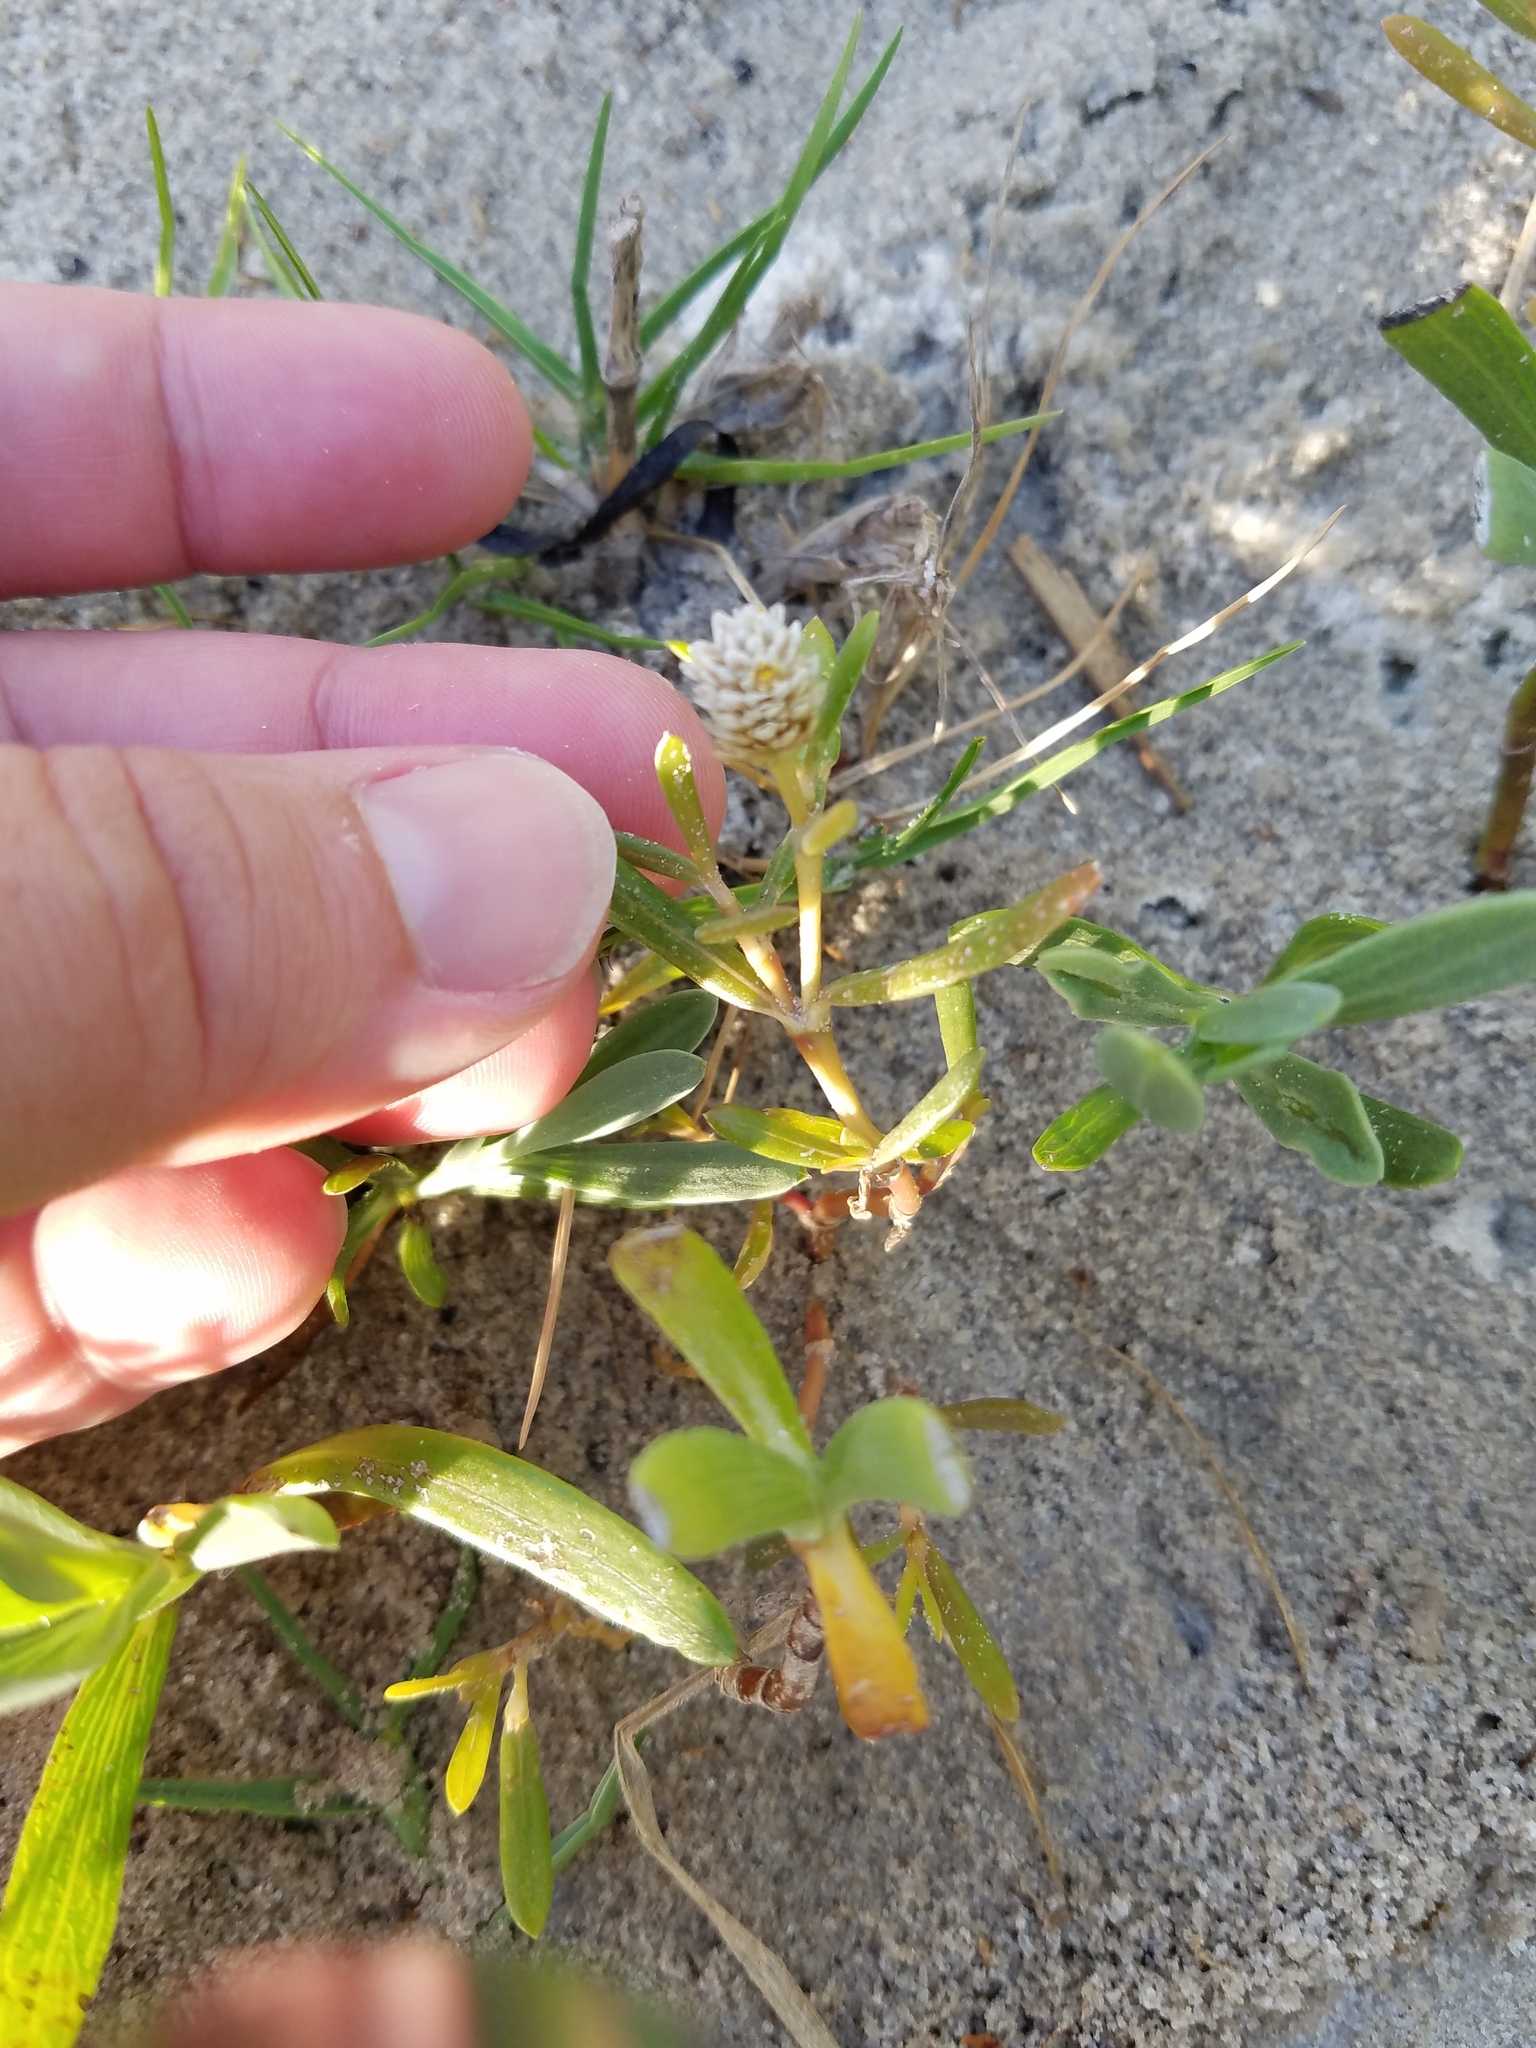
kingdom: Plantae
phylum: Tracheophyta
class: Magnoliopsida
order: Caryophyllales
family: Amaranthaceae
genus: Gomphrena
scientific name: Gomphrena vermicularis
